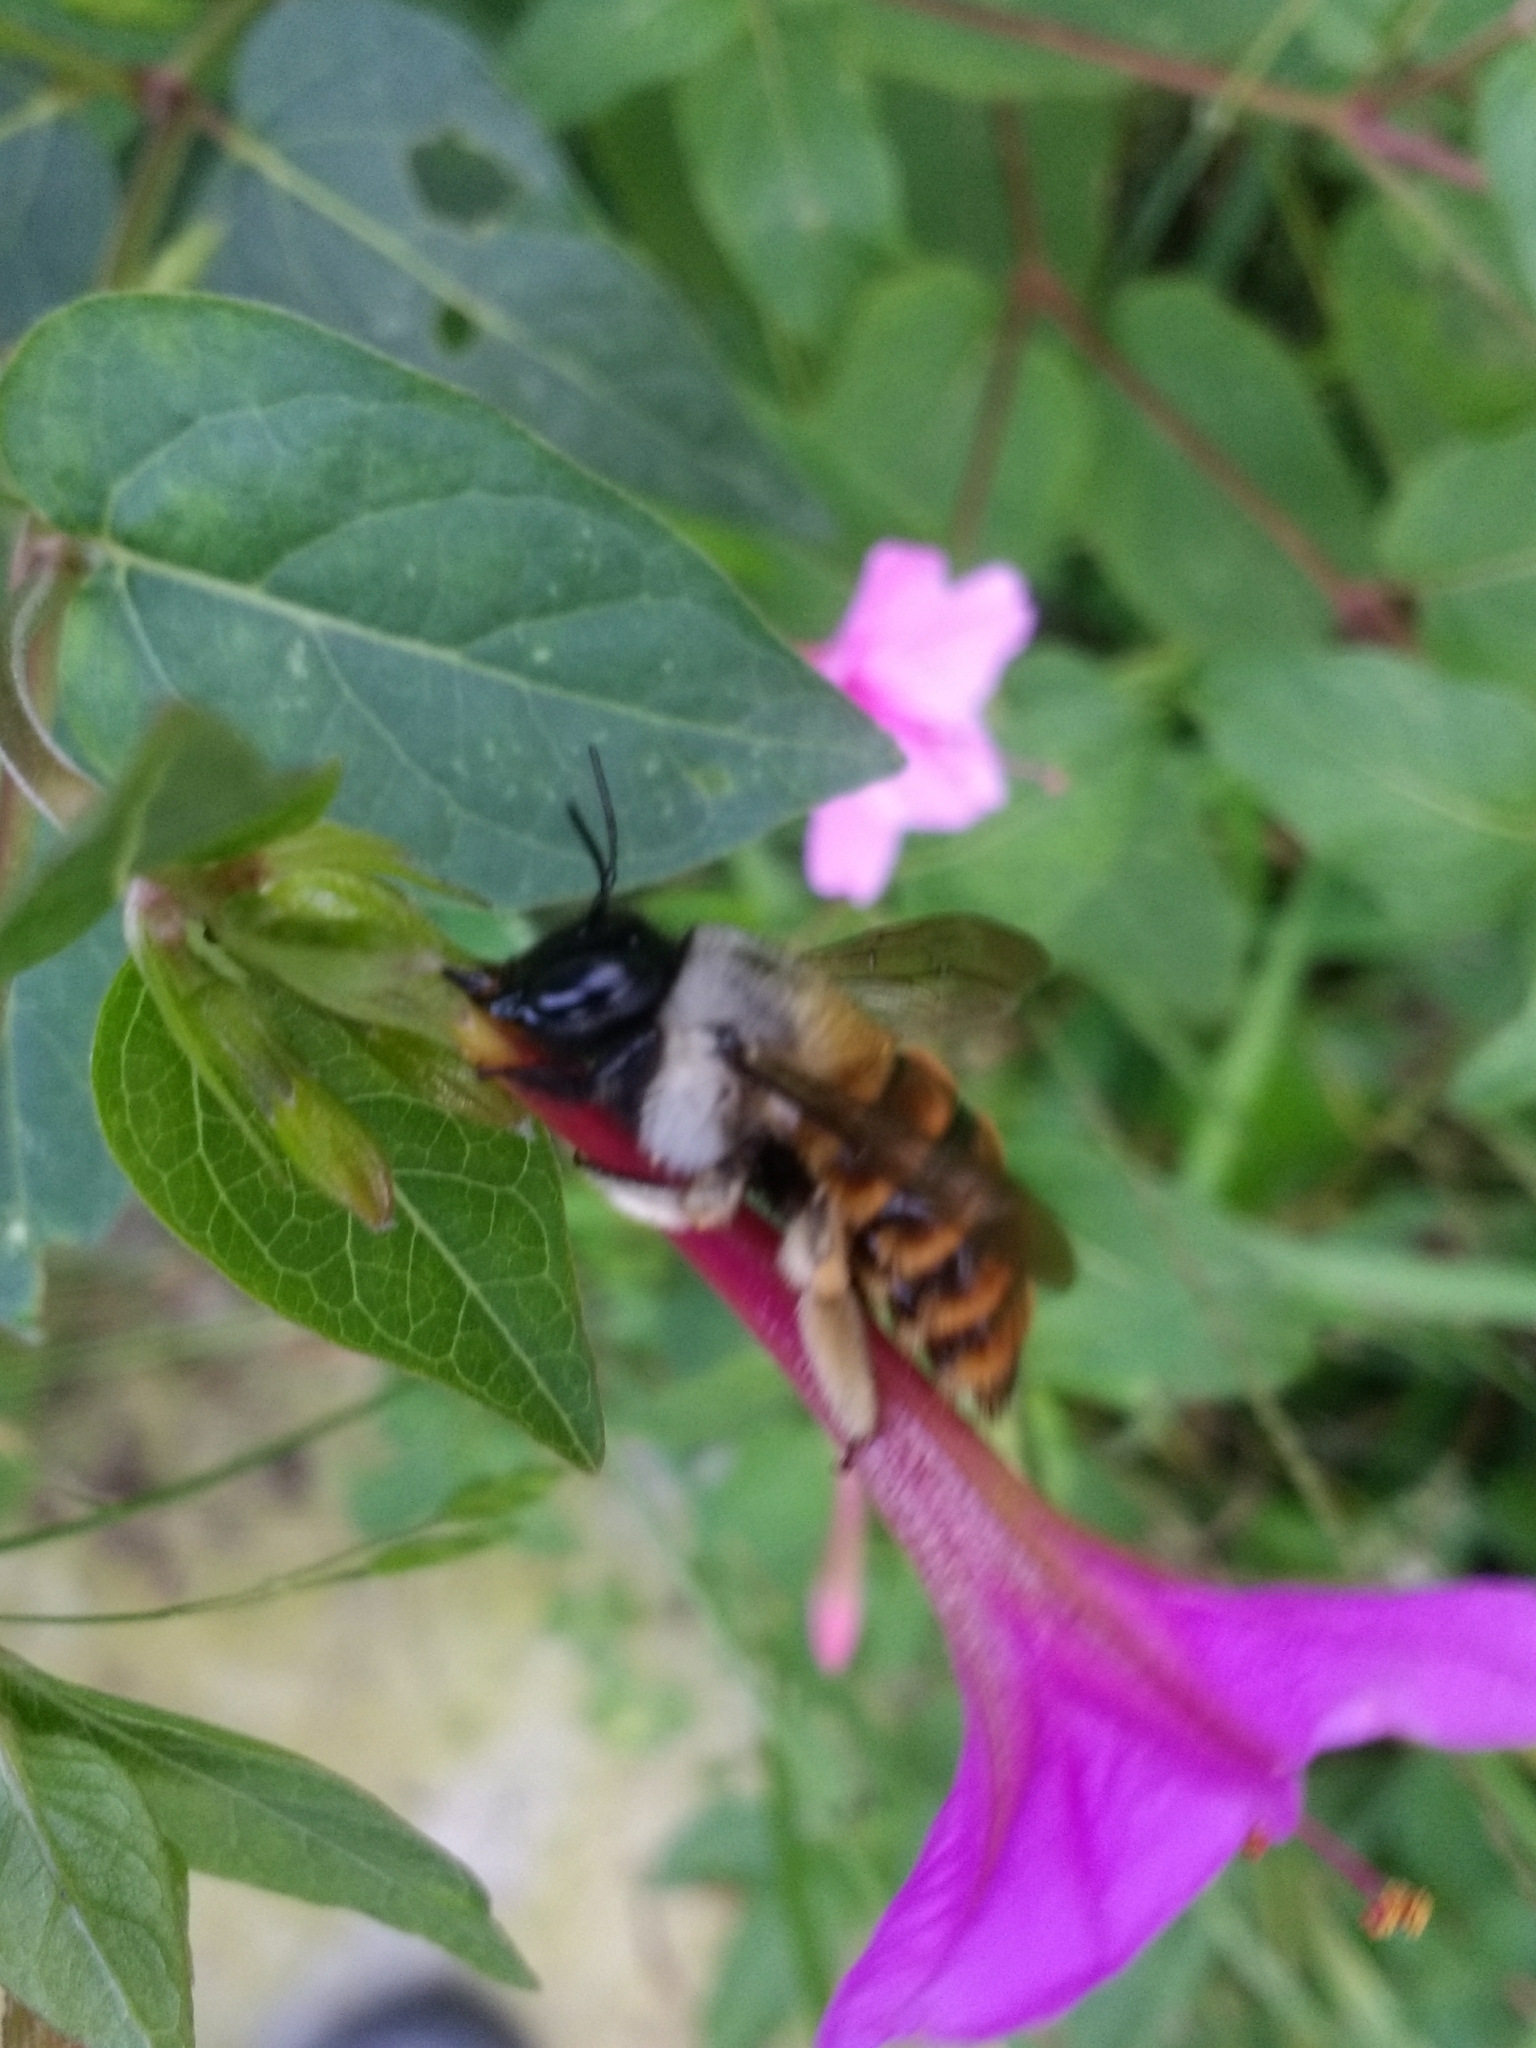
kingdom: Animalia
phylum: Arthropoda
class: Insecta
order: Hymenoptera
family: Apidae
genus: Xylocopa
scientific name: Xylocopa tabaniformis
